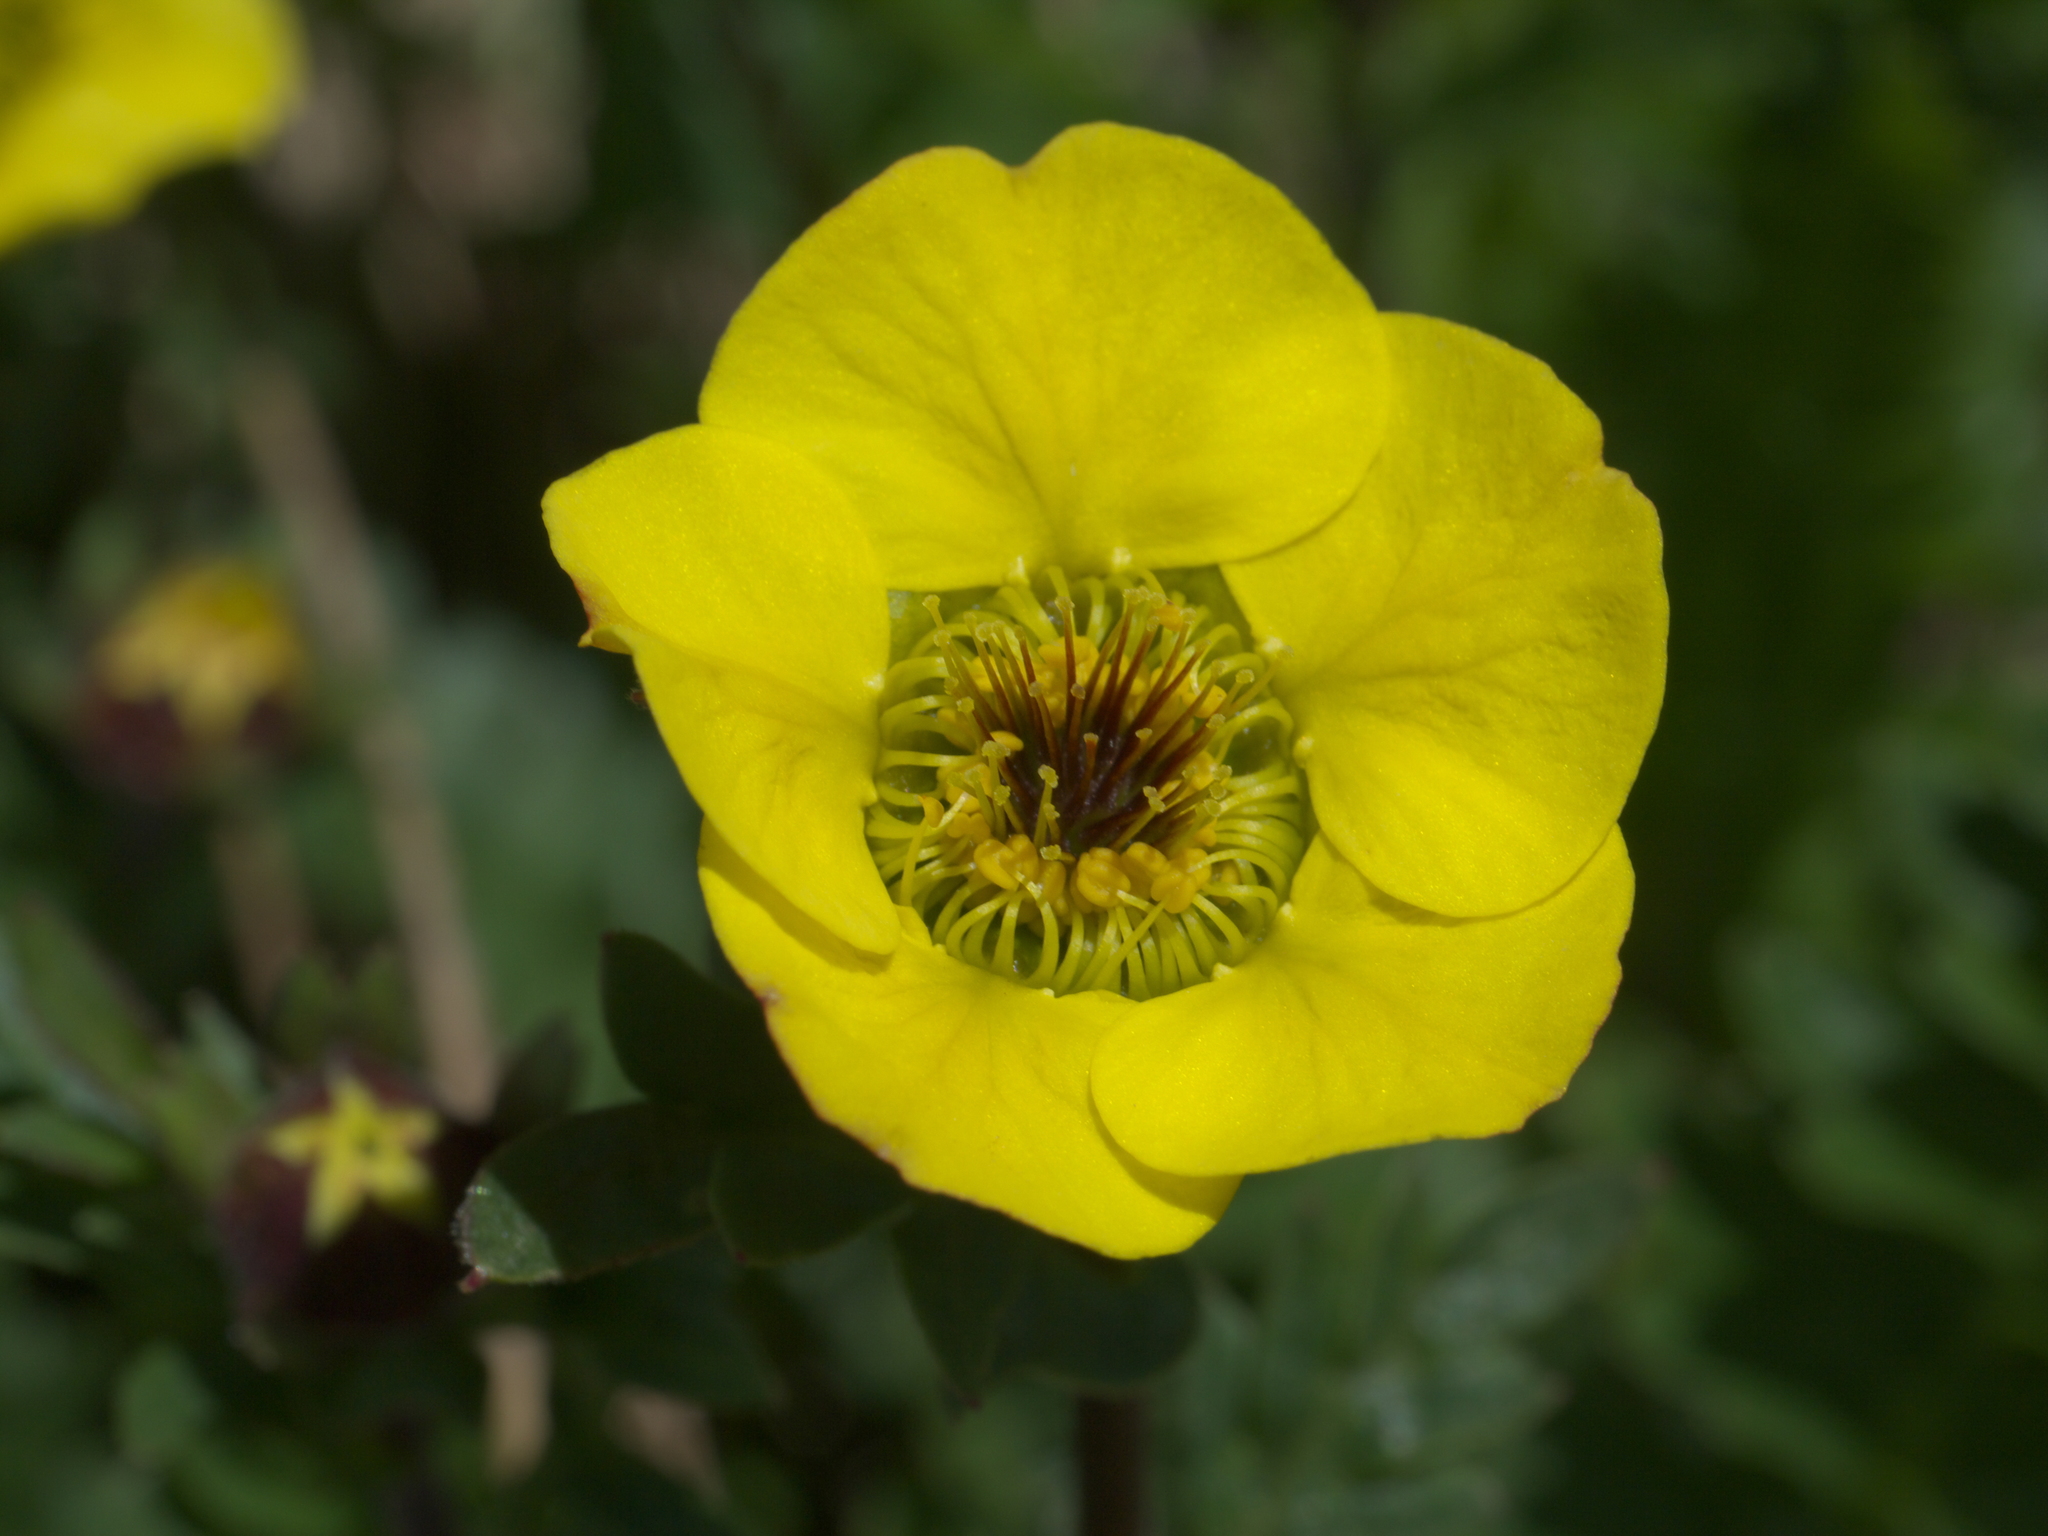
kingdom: Plantae
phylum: Tracheophyta
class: Magnoliopsida
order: Rosales
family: Rosaceae
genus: Geum
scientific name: Geum rossii
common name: Alpine avens
